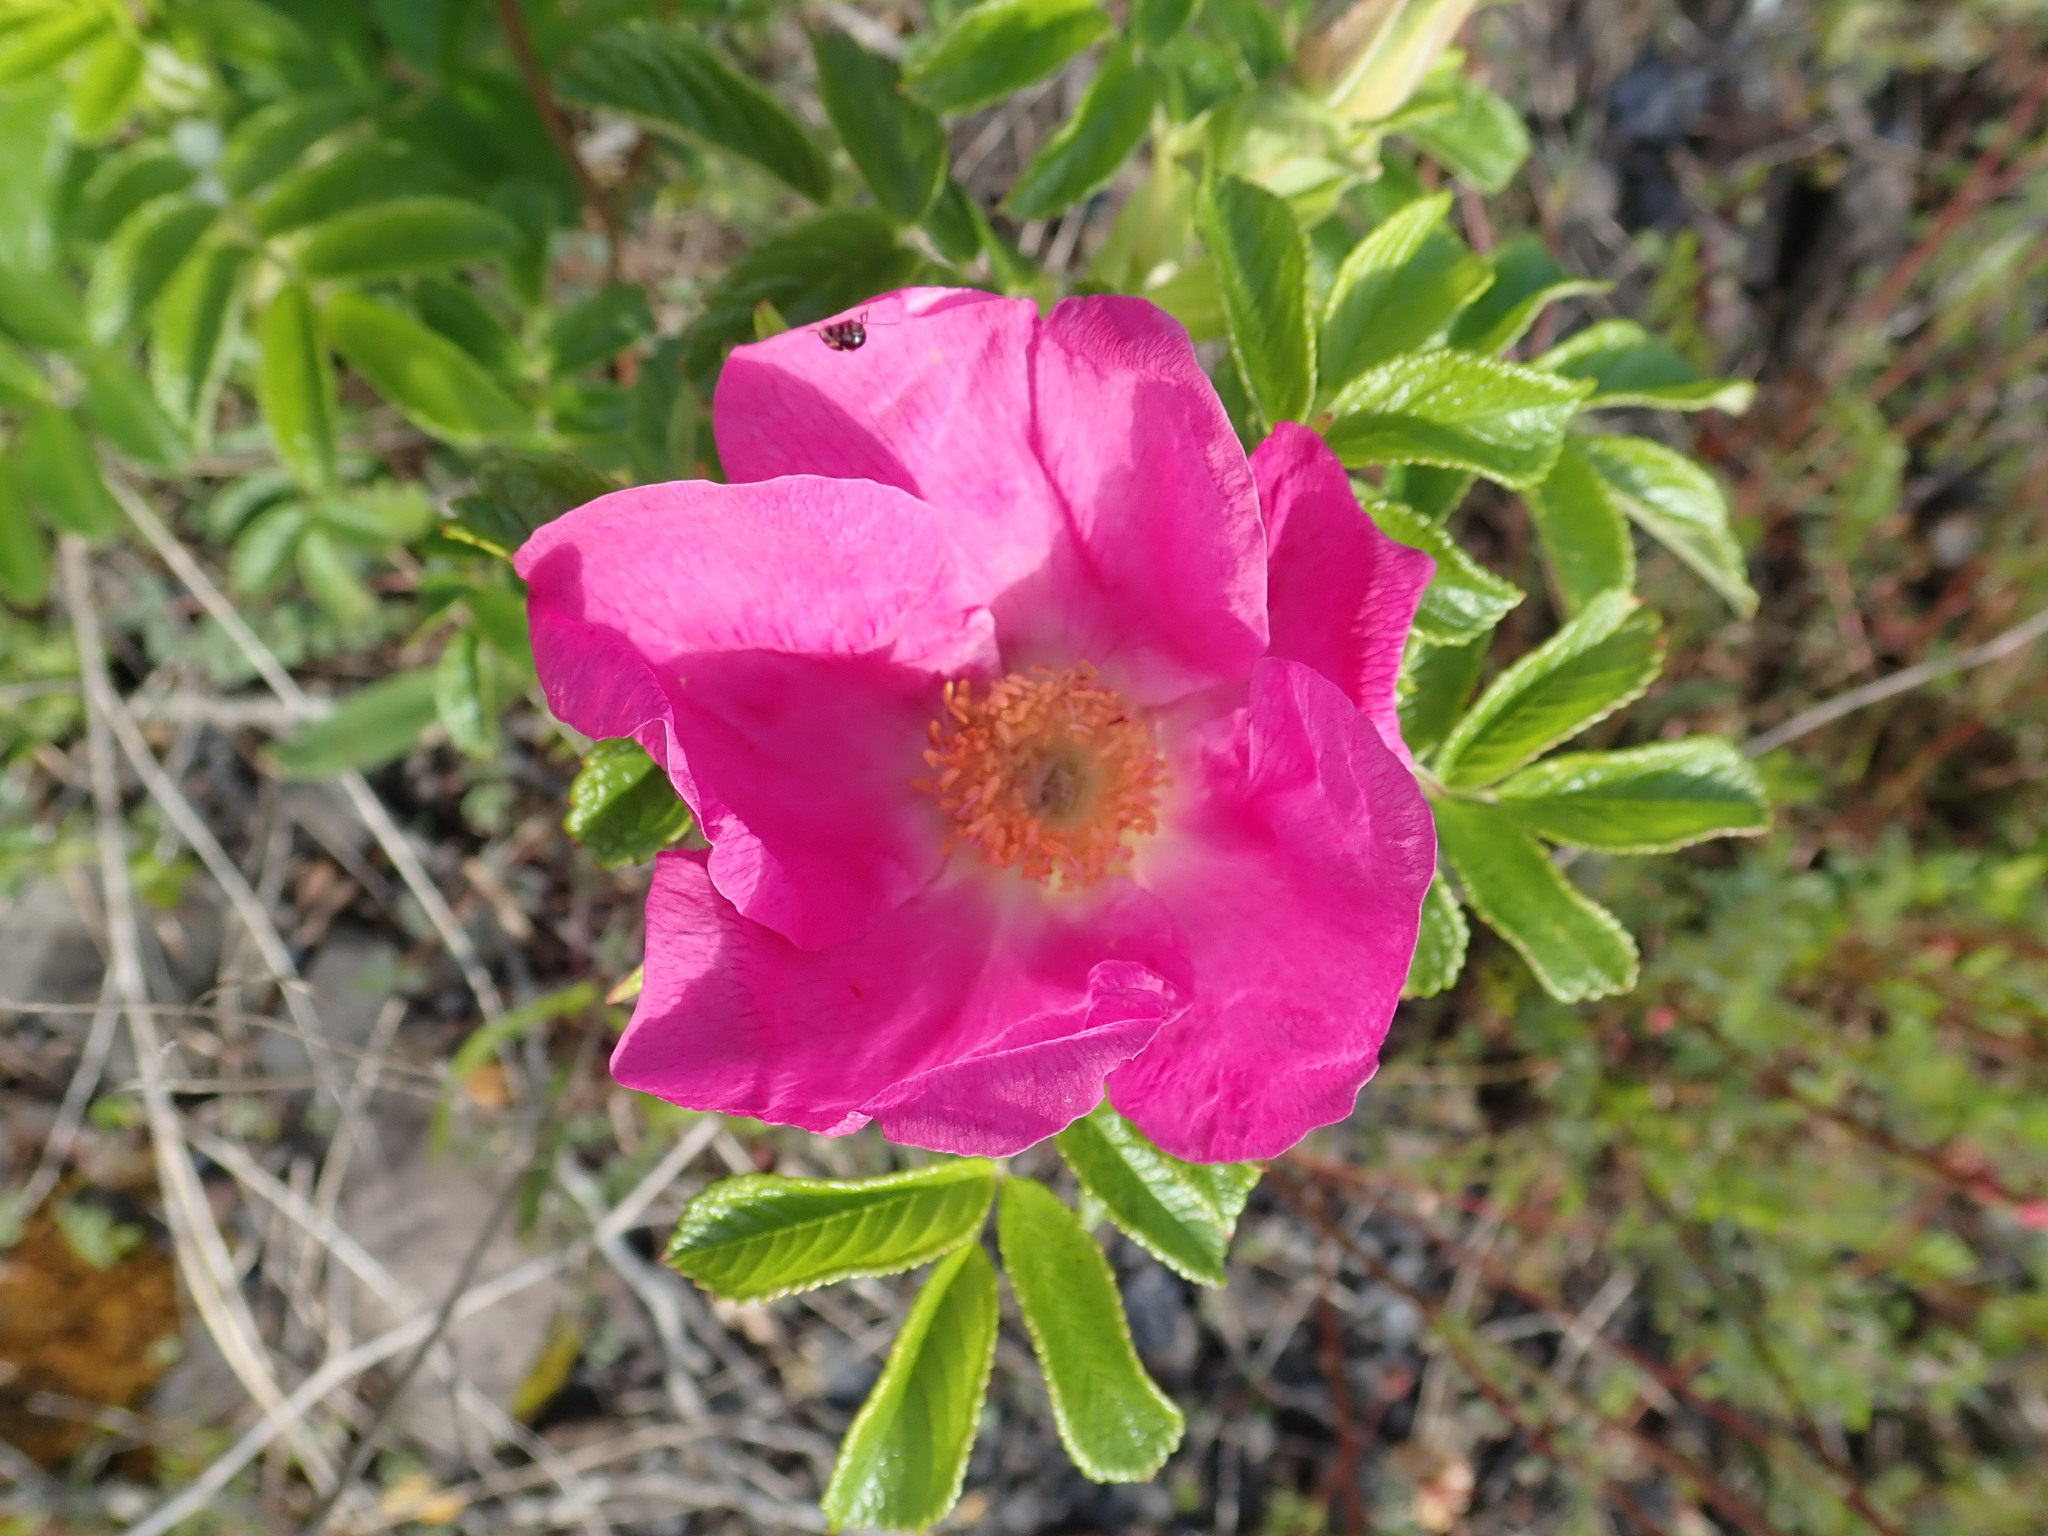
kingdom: Plantae
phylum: Tracheophyta
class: Magnoliopsida
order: Rosales
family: Rosaceae
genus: Rosa
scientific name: Rosa rugosa
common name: Japanese rose
